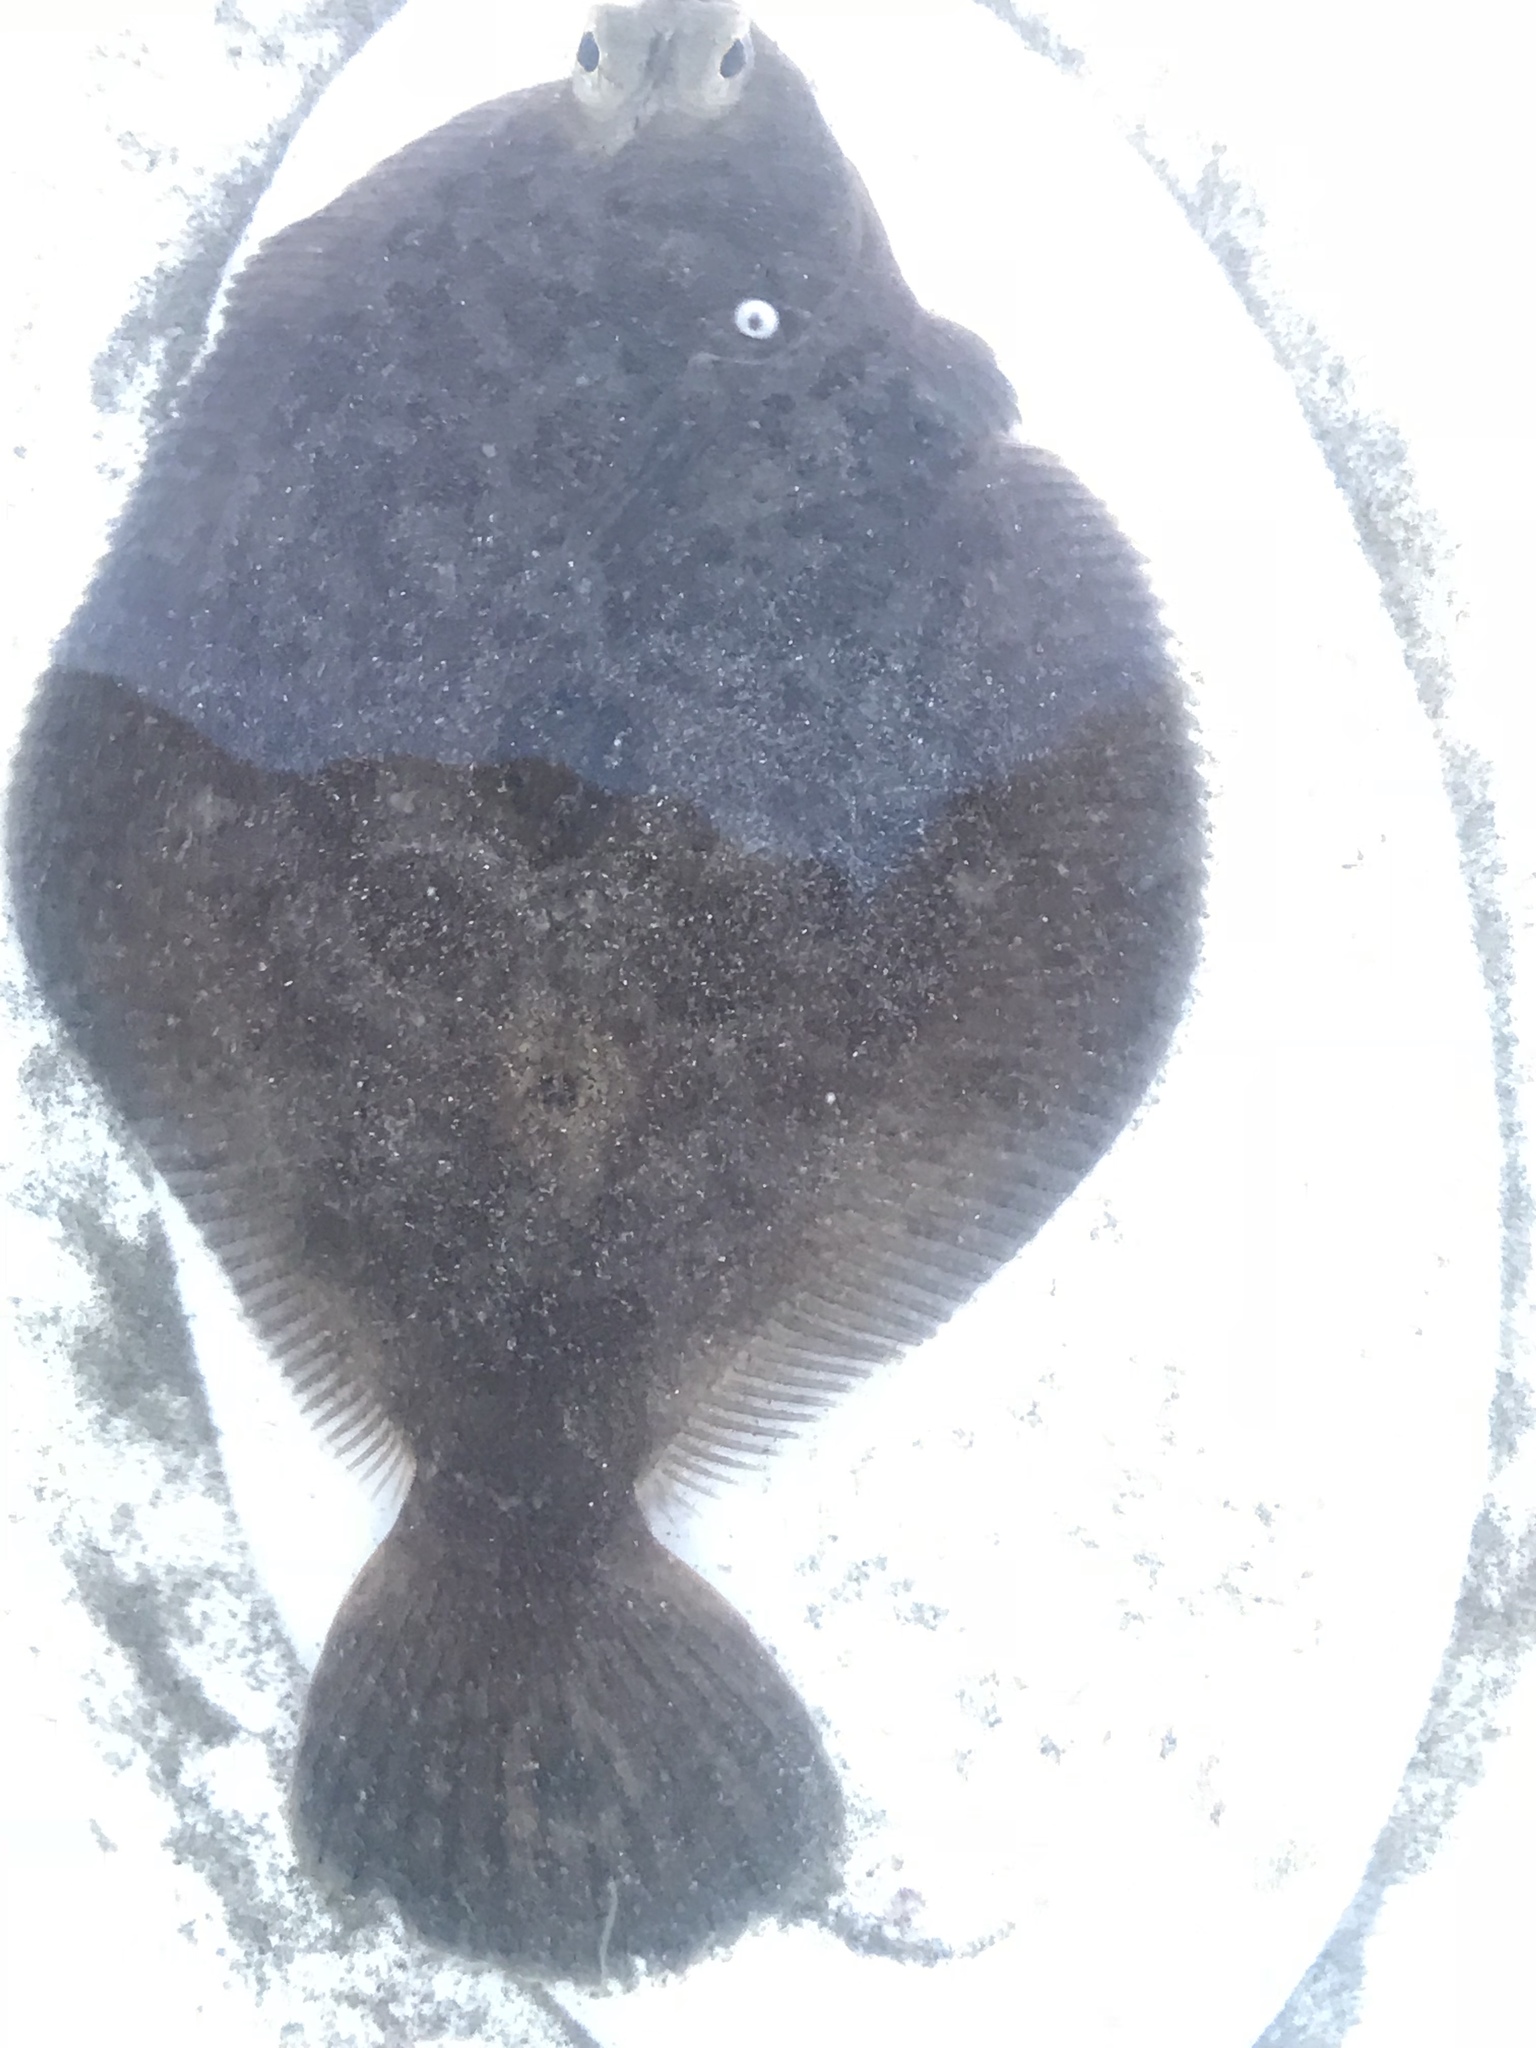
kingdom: Animalia
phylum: Chordata
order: Pleuronectiformes
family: Pleuronectidae
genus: Pleuronichthys
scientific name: Pleuronichthys coenosus
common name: C-o sole
